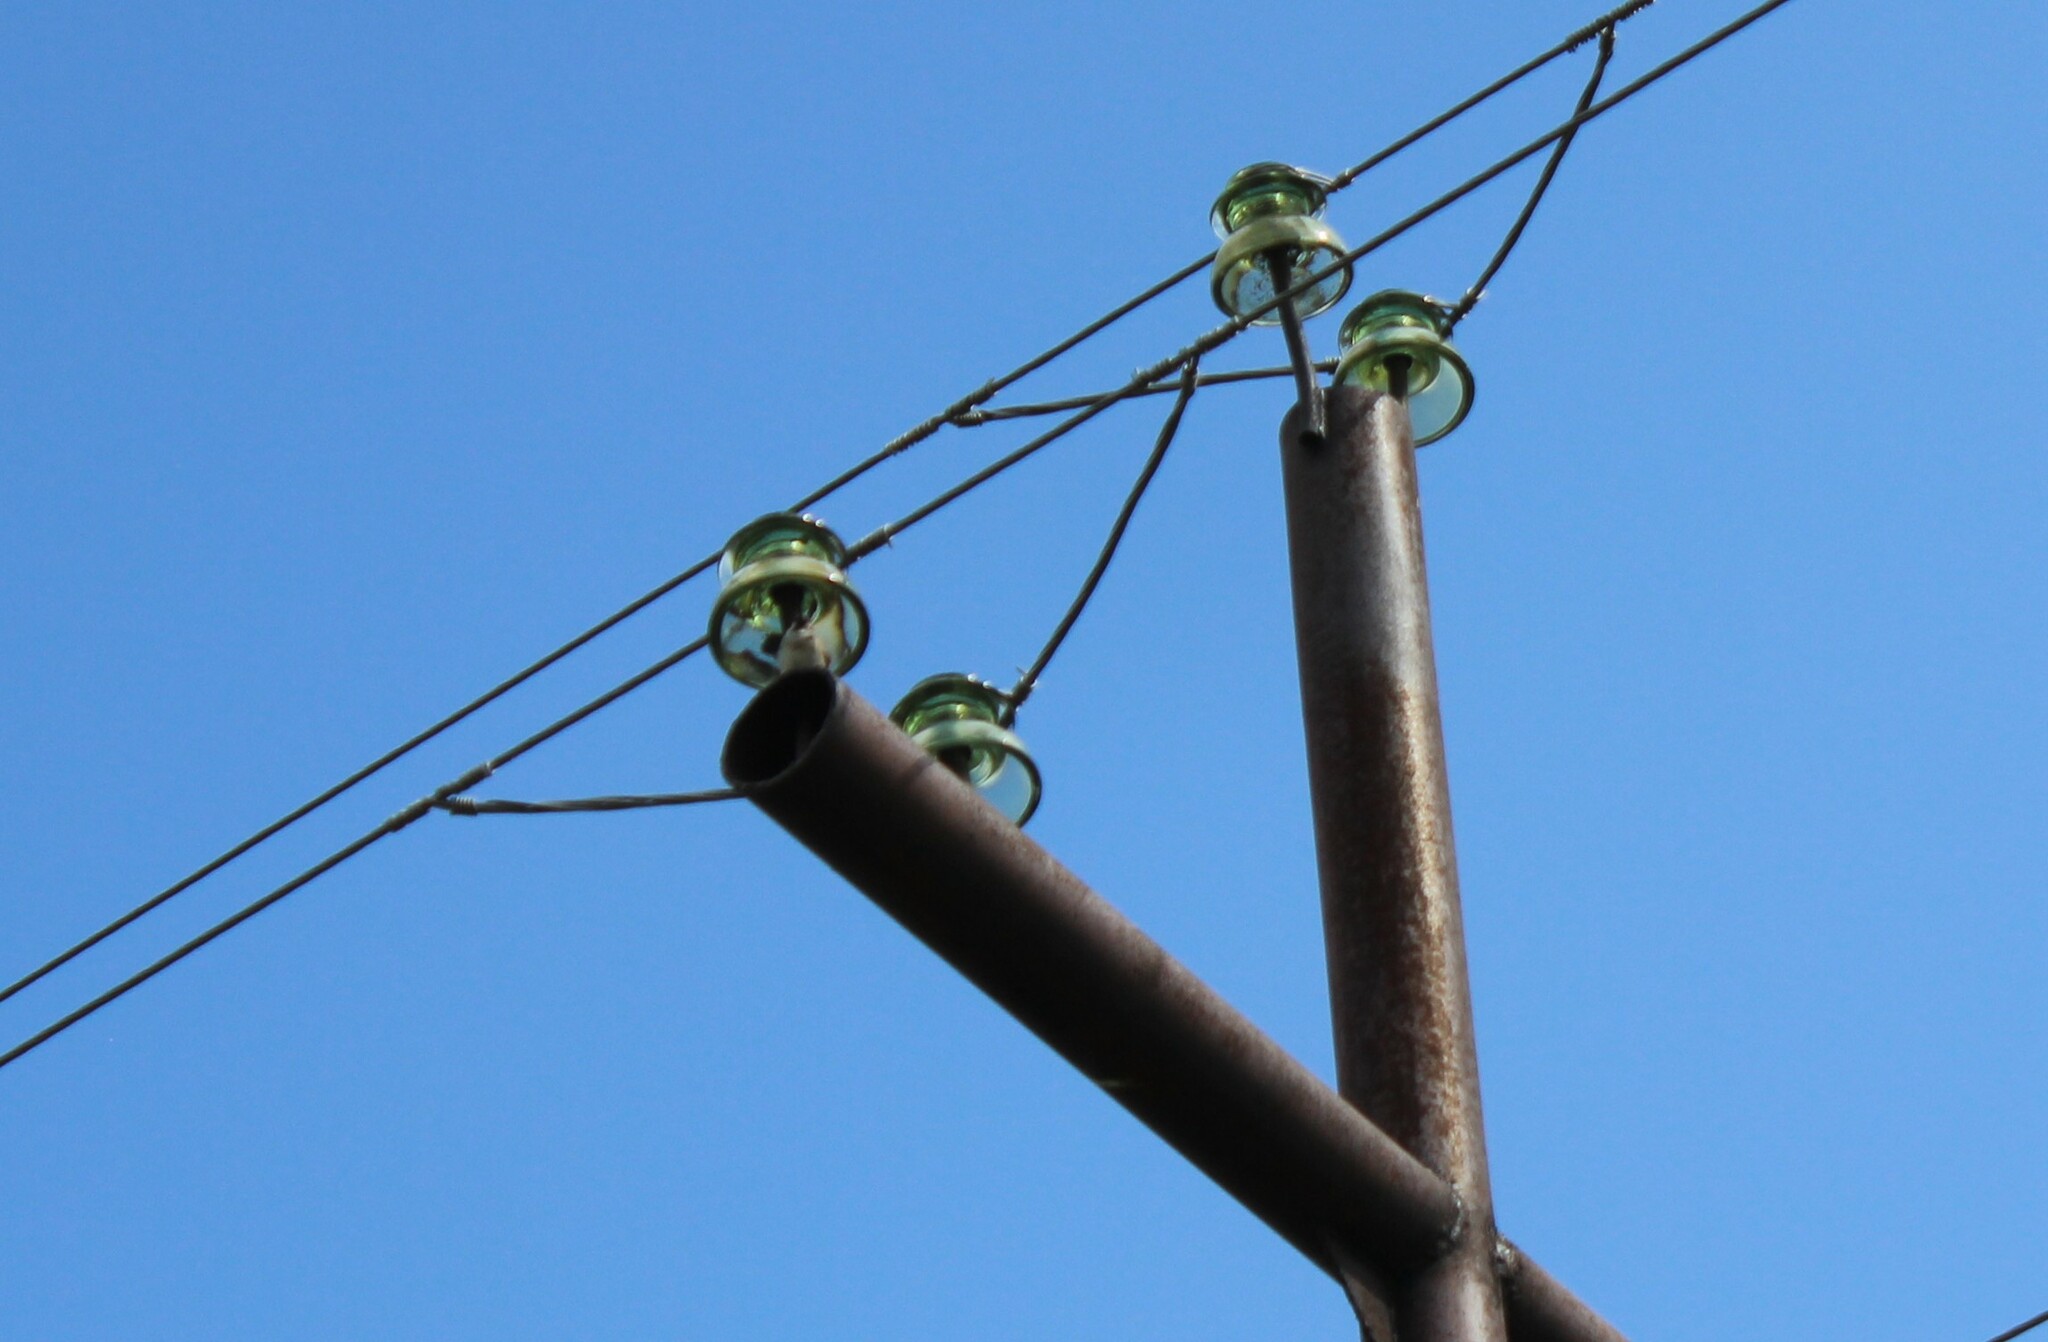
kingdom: Animalia
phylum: Chordata
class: Aves
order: Passeriformes
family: Passeridae
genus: Passer
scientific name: Passer montanus
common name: Eurasian tree sparrow
